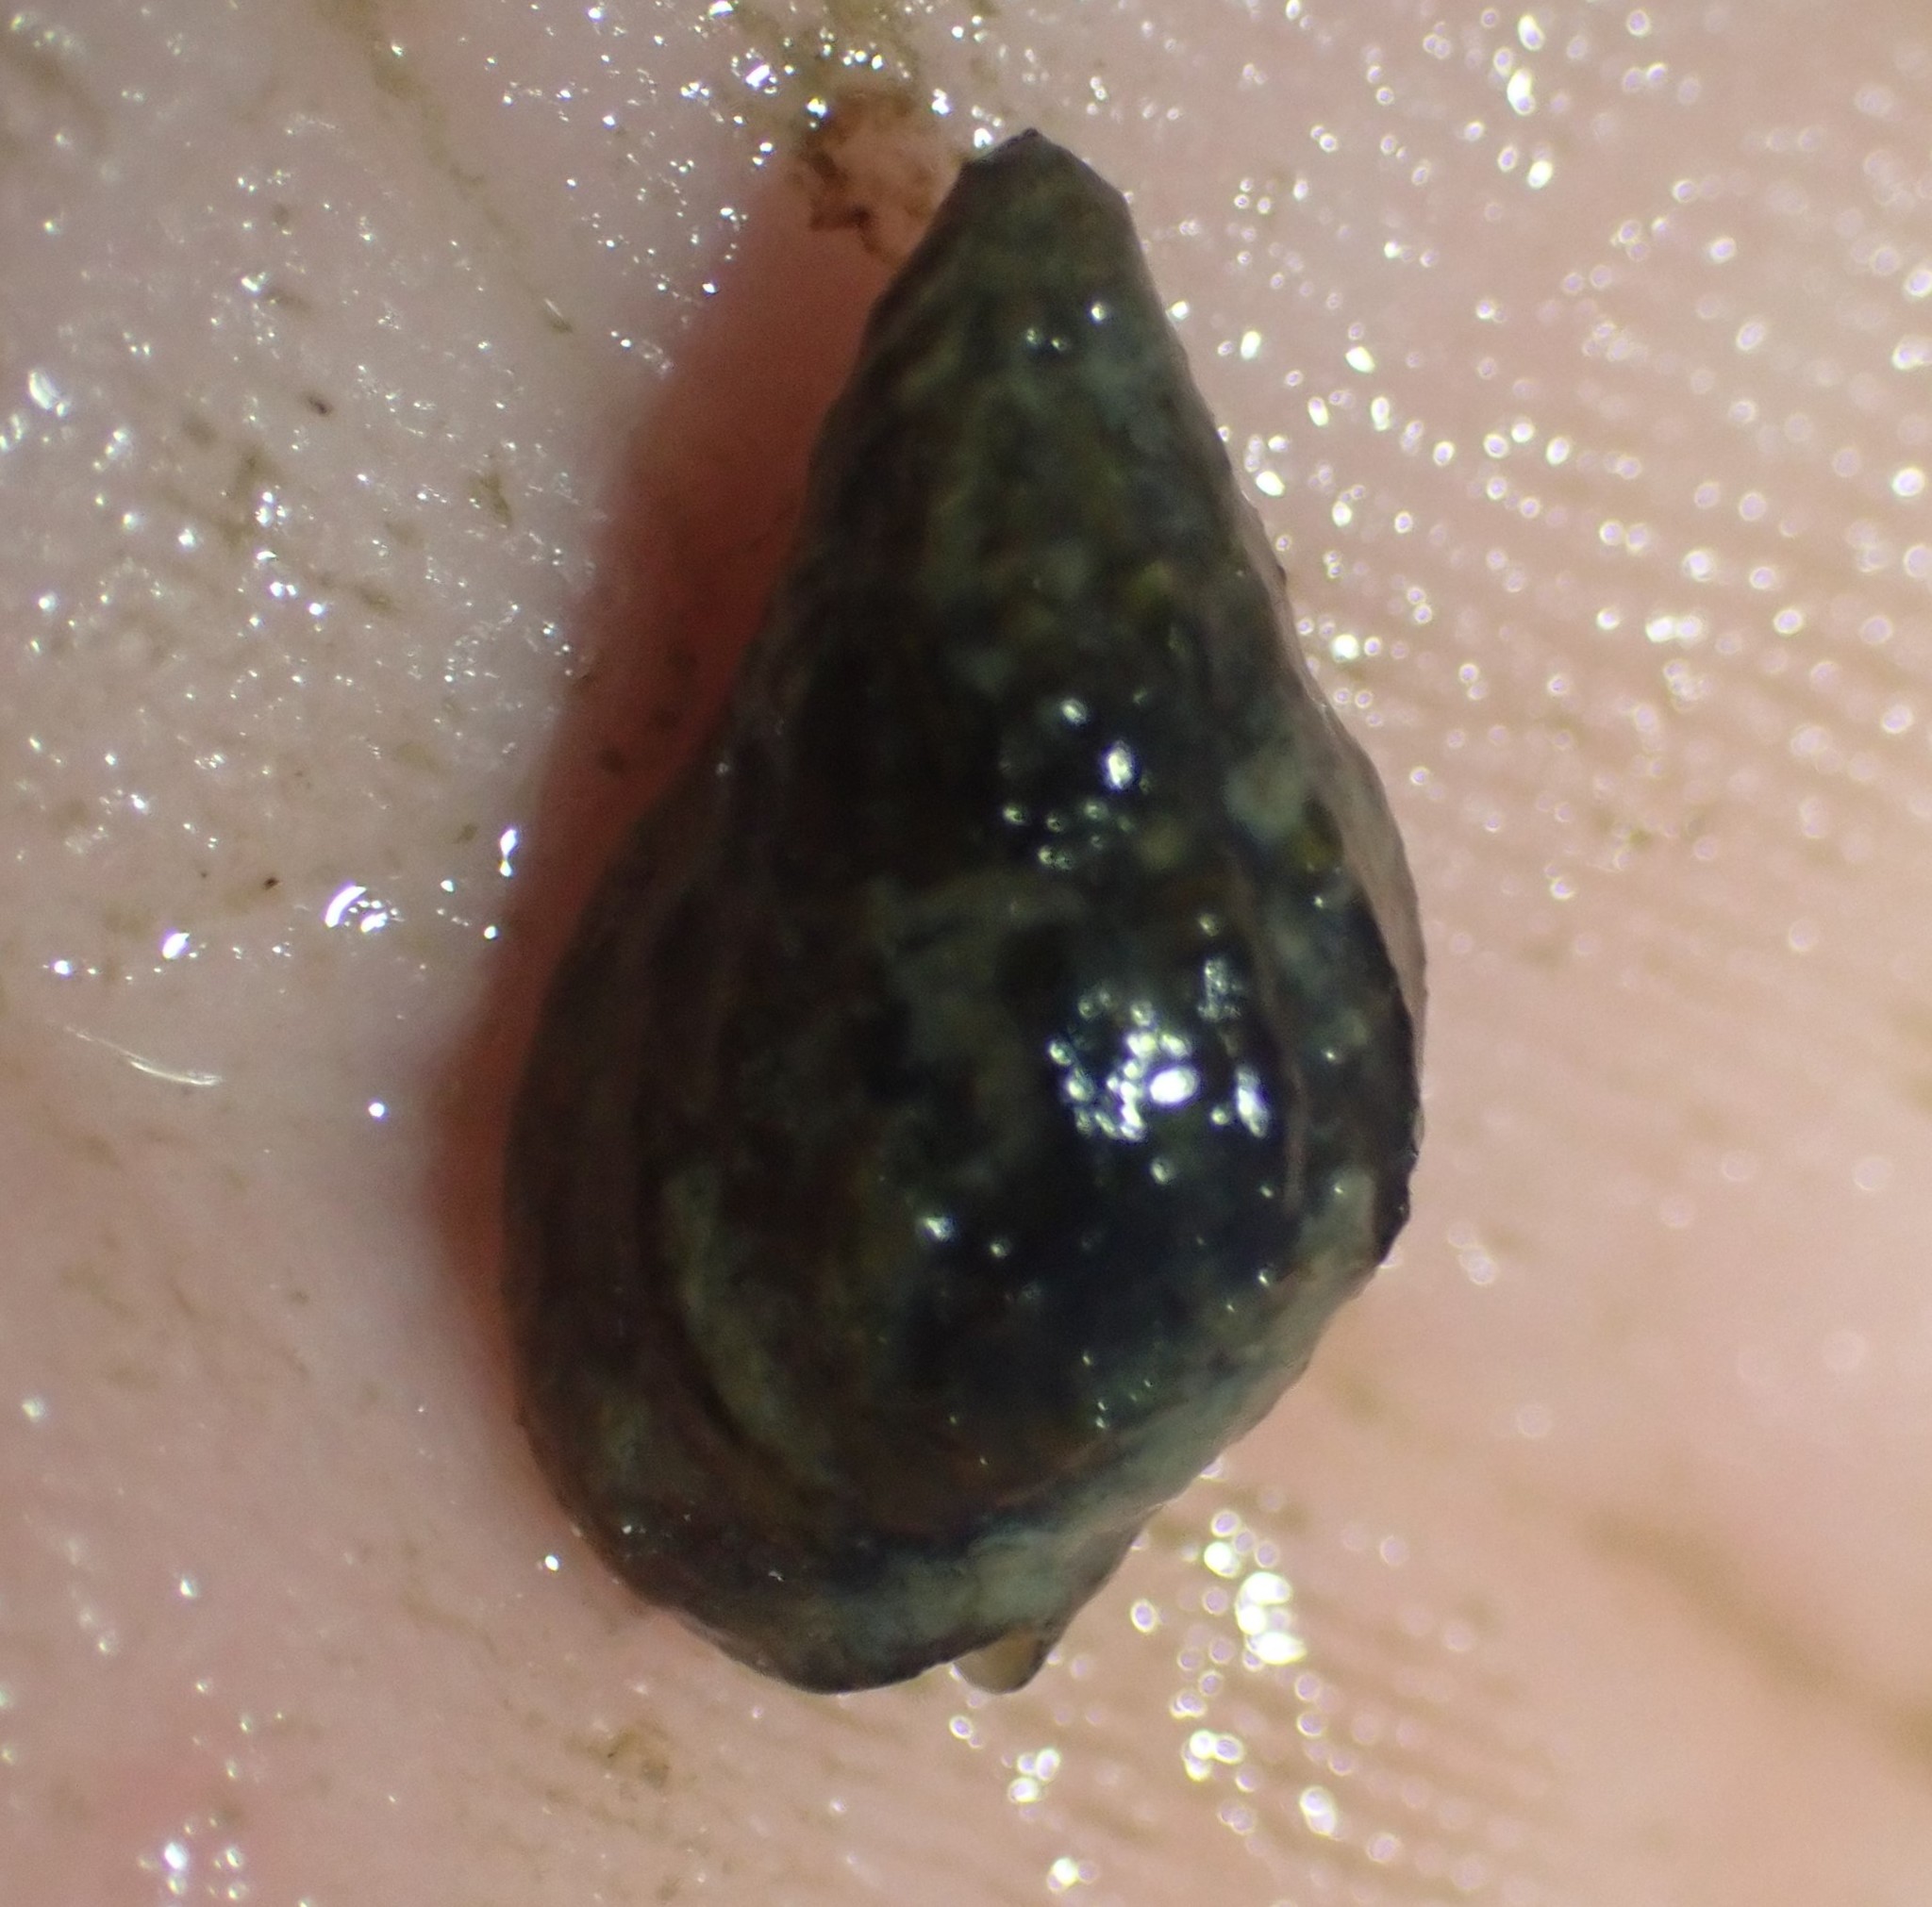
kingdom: Animalia
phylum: Mollusca
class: Gastropoda
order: Neogastropoda
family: Nassariidae
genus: Tritia
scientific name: Tritia burchardi
